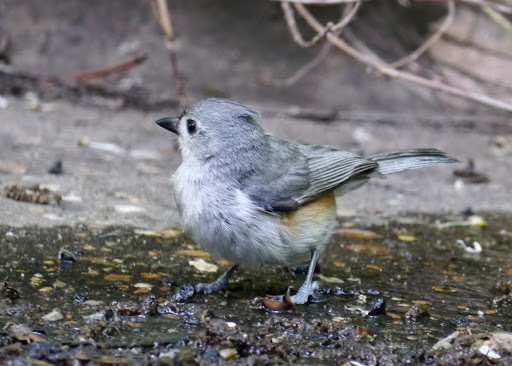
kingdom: Animalia
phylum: Chordata
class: Aves
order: Passeriformes
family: Paridae
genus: Baeolophus
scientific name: Baeolophus bicolor
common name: Tufted titmouse
